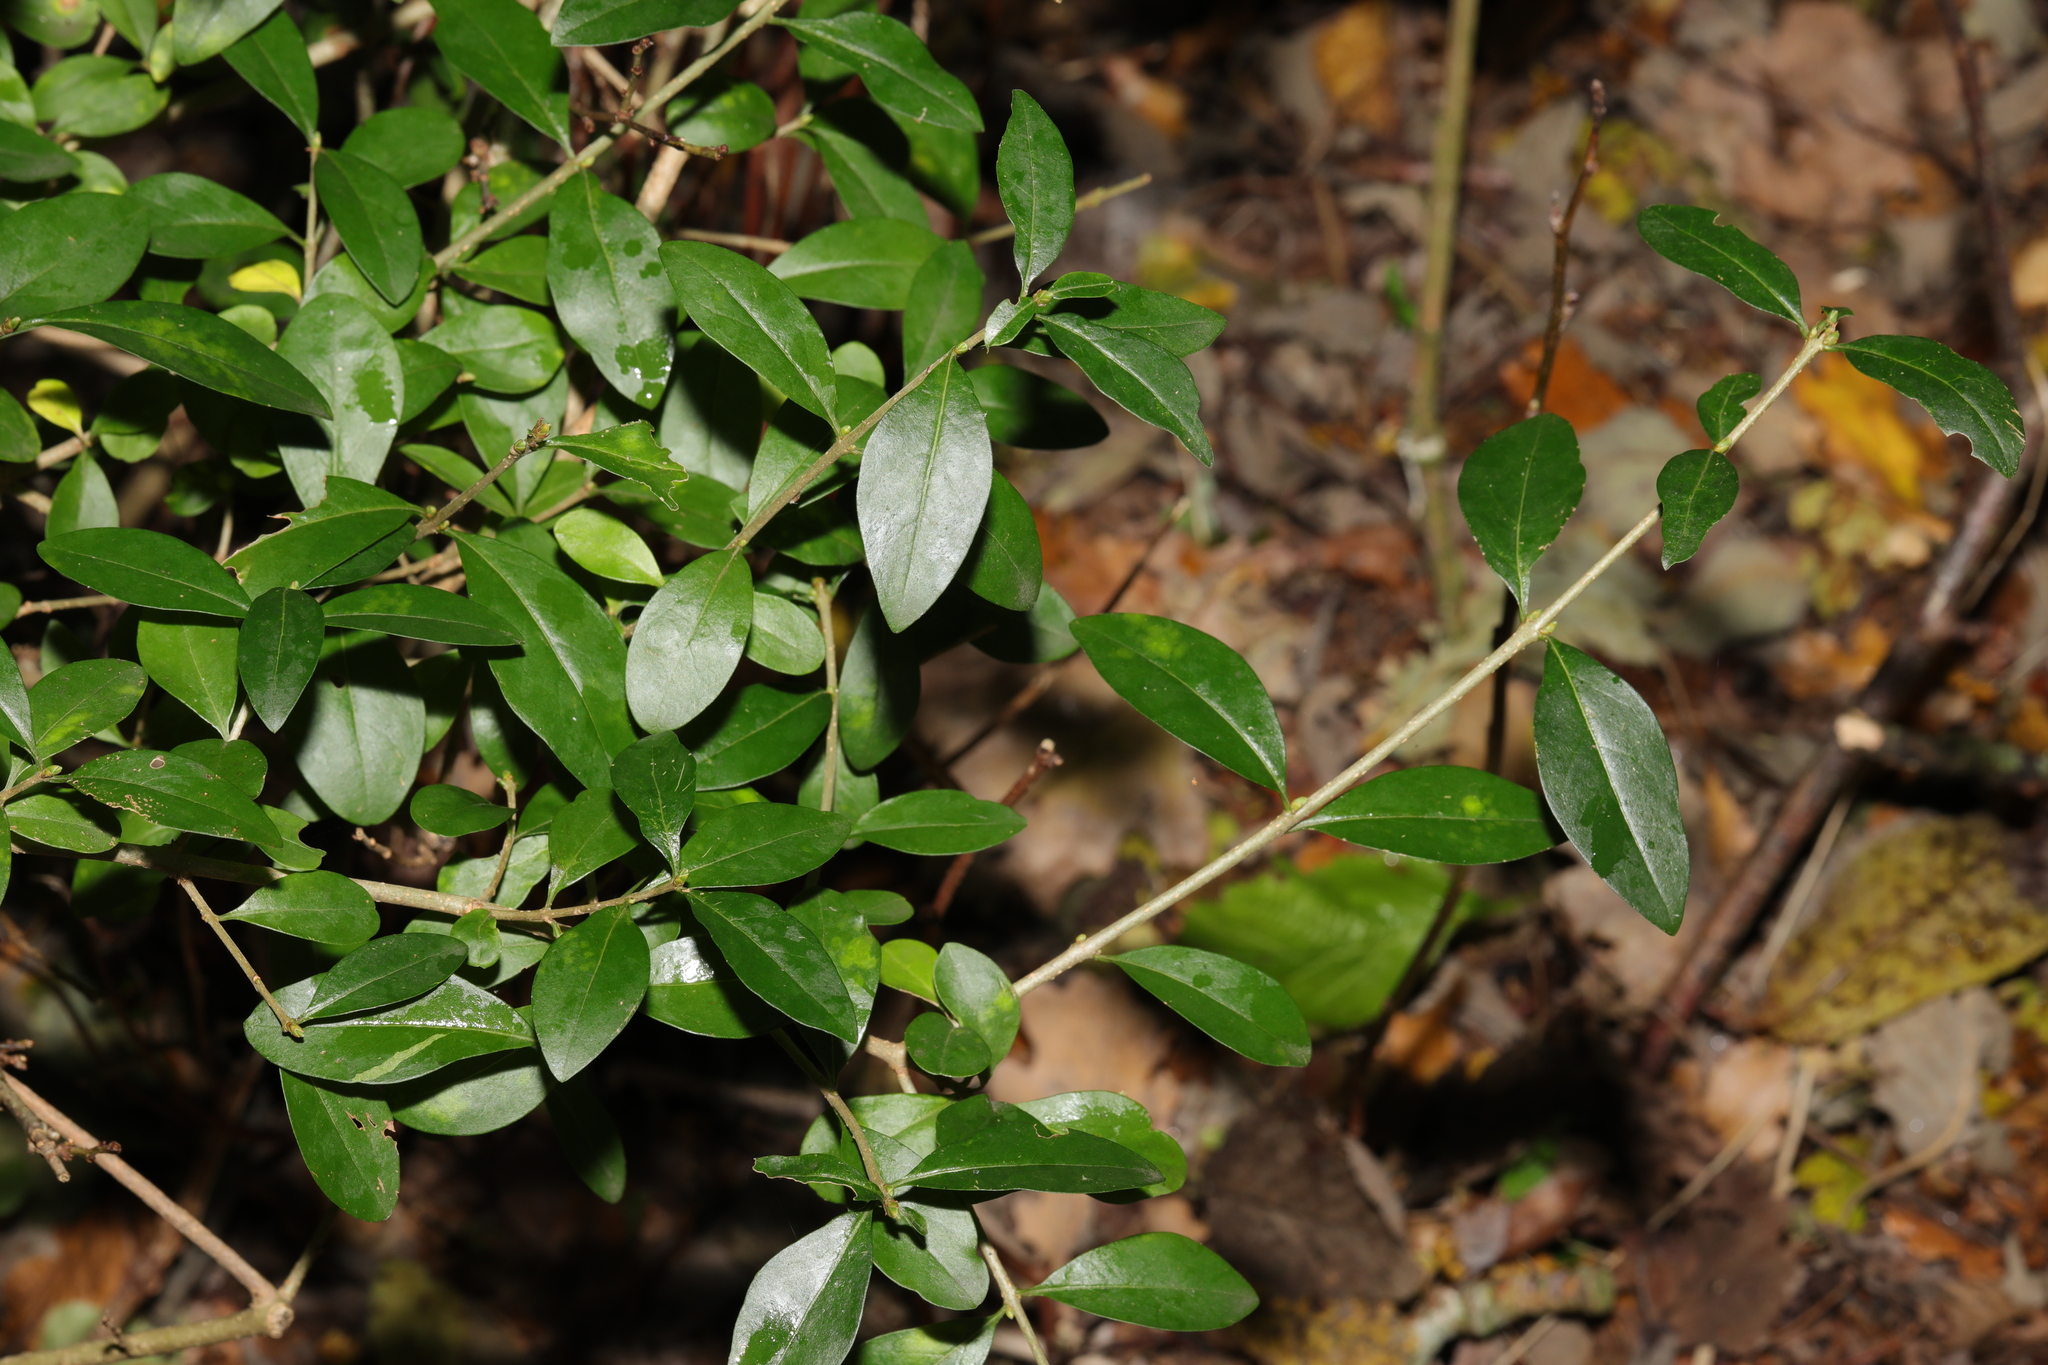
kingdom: Plantae
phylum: Tracheophyta
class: Magnoliopsida
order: Lamiales
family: Oleaceae
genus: Ligustrum
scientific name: Ligustrum vulgare
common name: Wild privet
